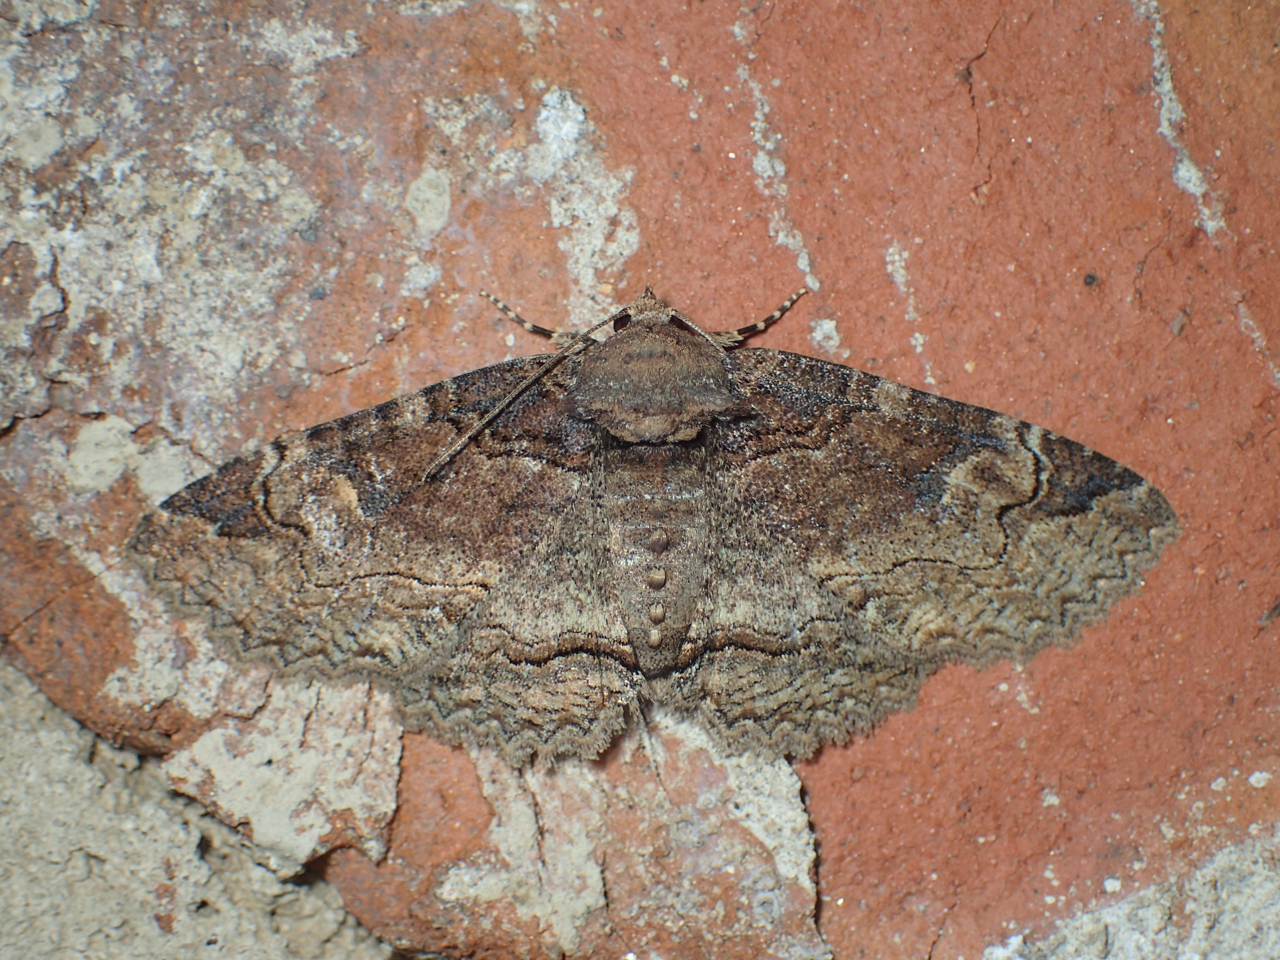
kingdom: Animalia
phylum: Arthropoda
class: Insecta
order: Lepidoptera
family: Erebidae
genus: Zale
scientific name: Zale phaeocapna
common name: Hazel zale moth
